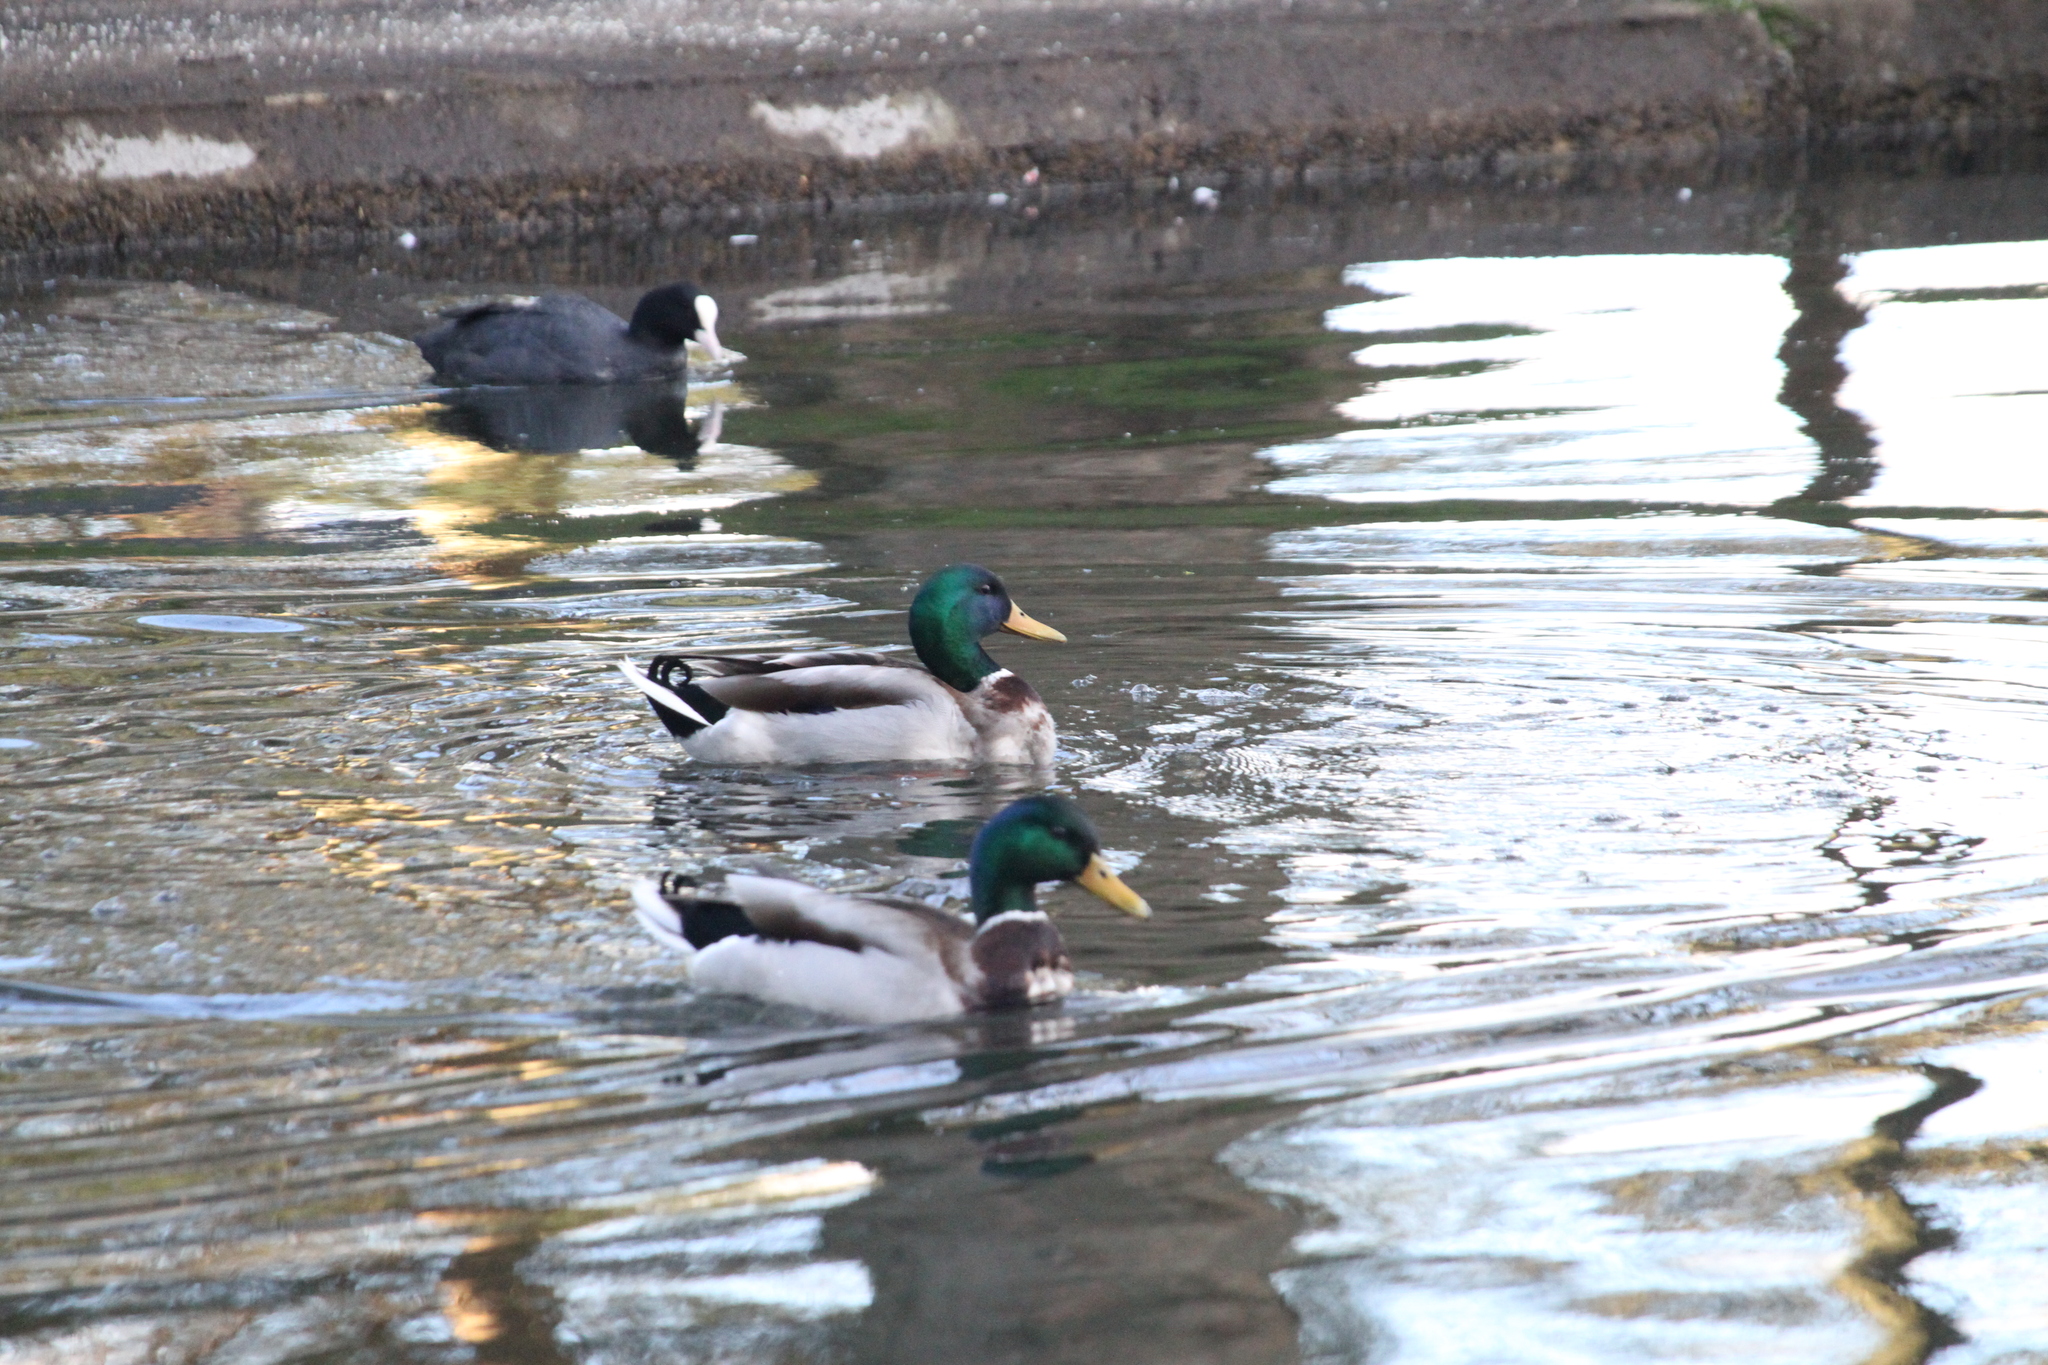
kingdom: Animalia
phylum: Chordata
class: Aves
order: Anseriformes
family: Anatidae
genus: Anas
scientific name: Anas platyrhynchos
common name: Mallard
